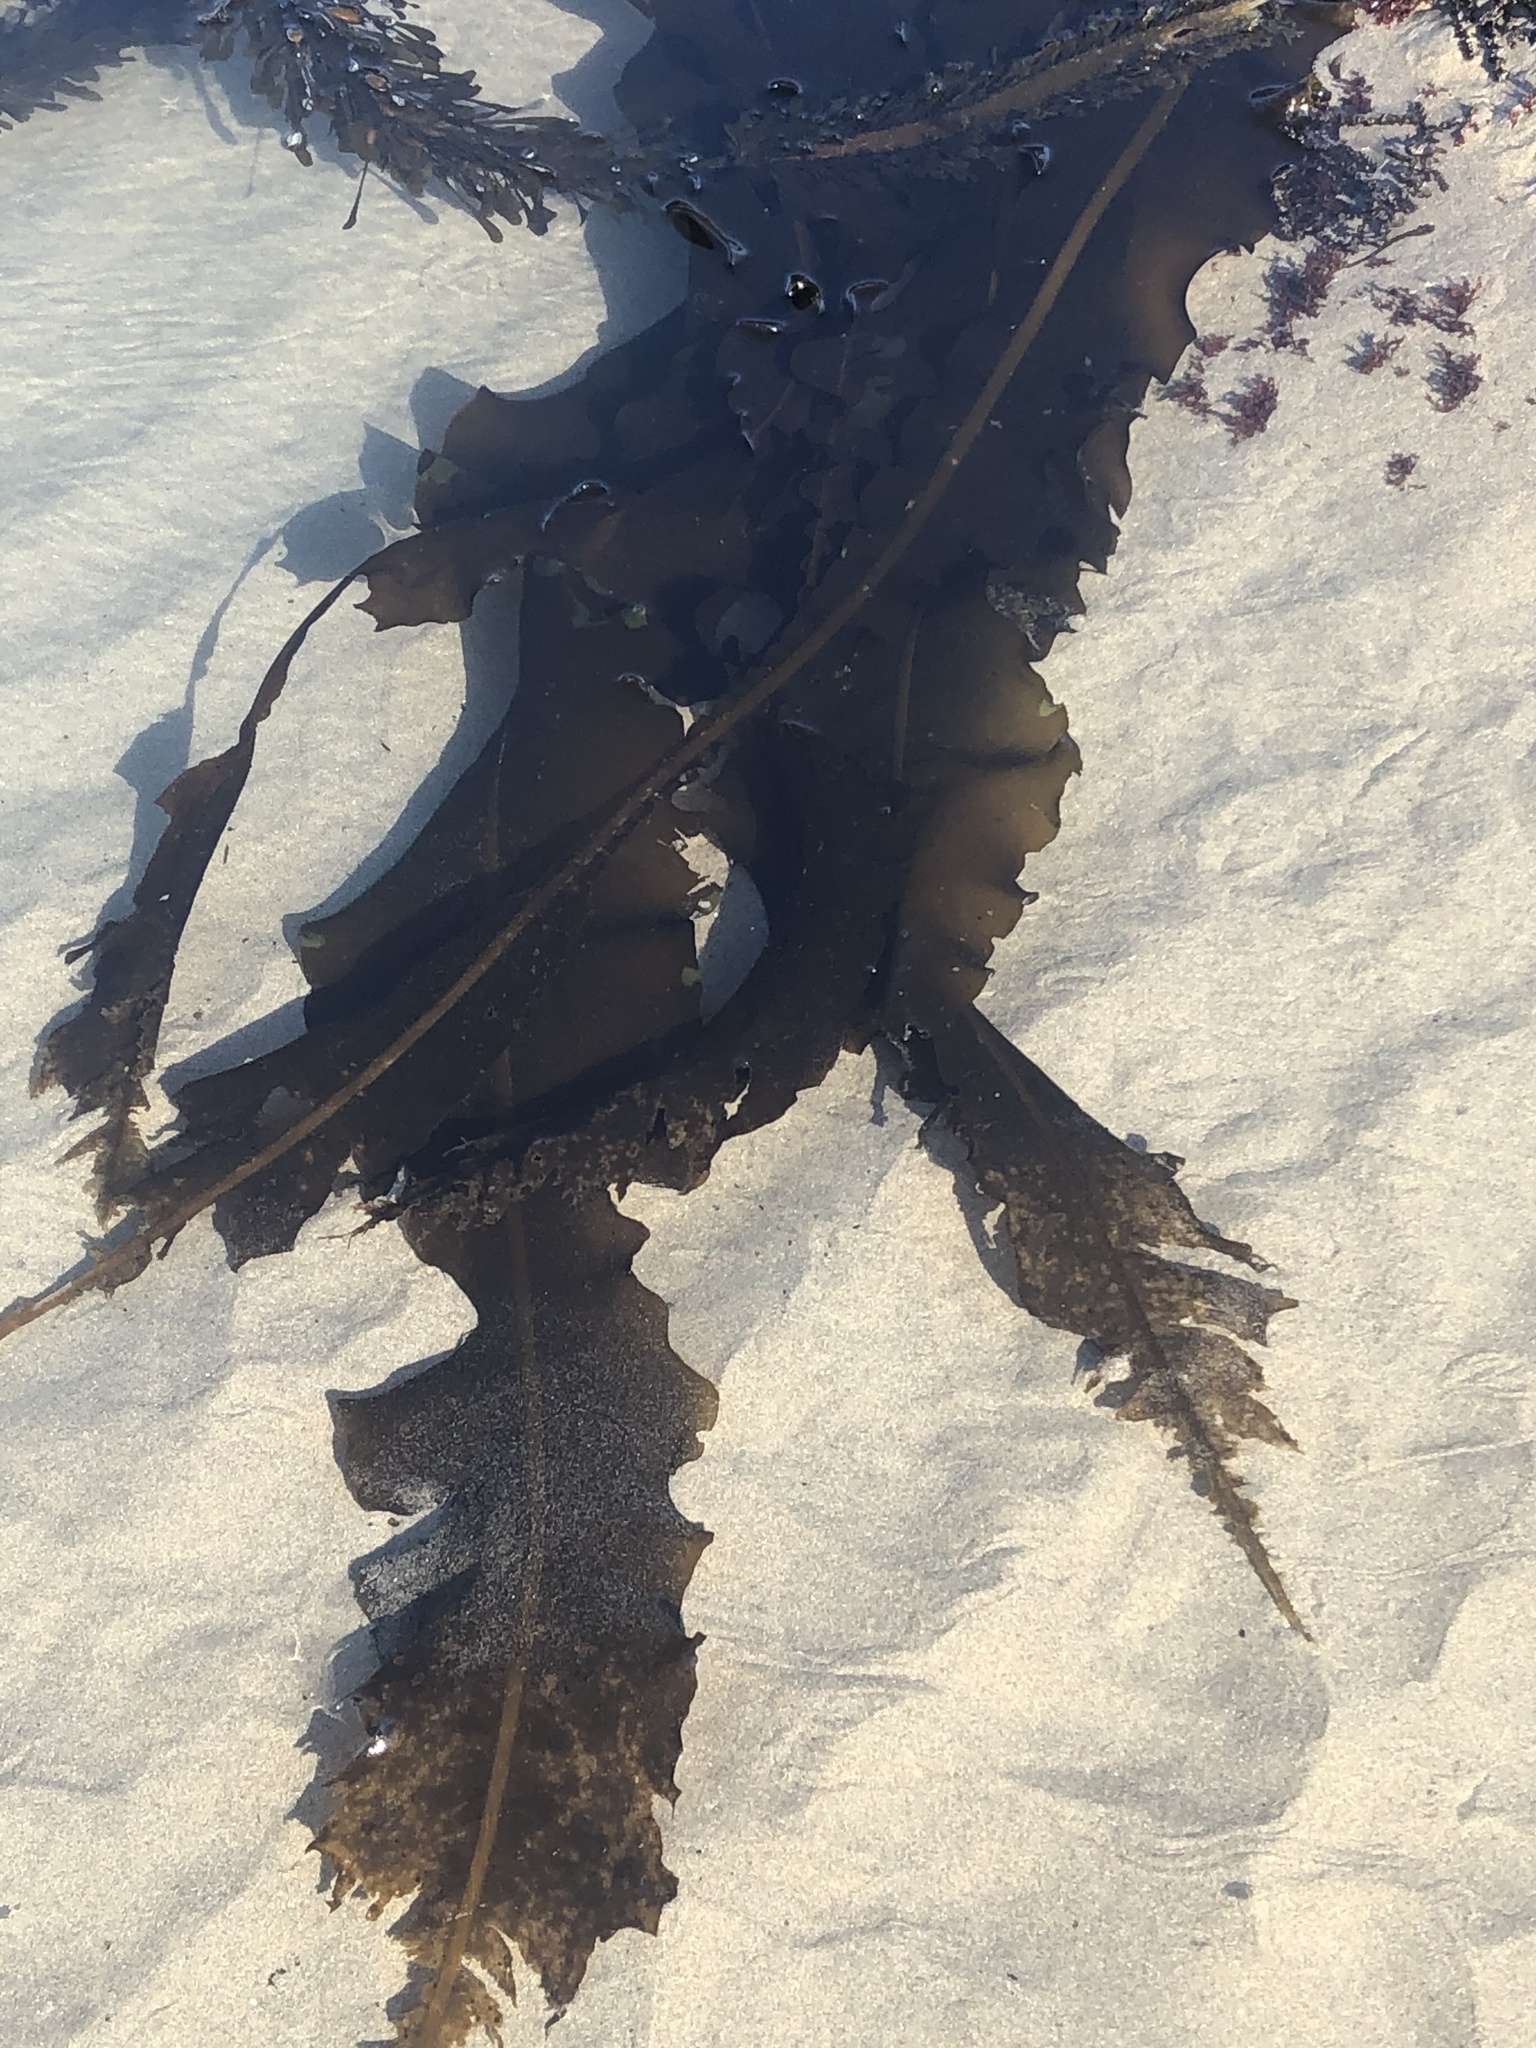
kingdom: Chromista
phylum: Ochrophyta
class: Phaeophyceae
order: Laminariales
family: Alariaceae
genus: Alaria
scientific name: Alaria marginata
